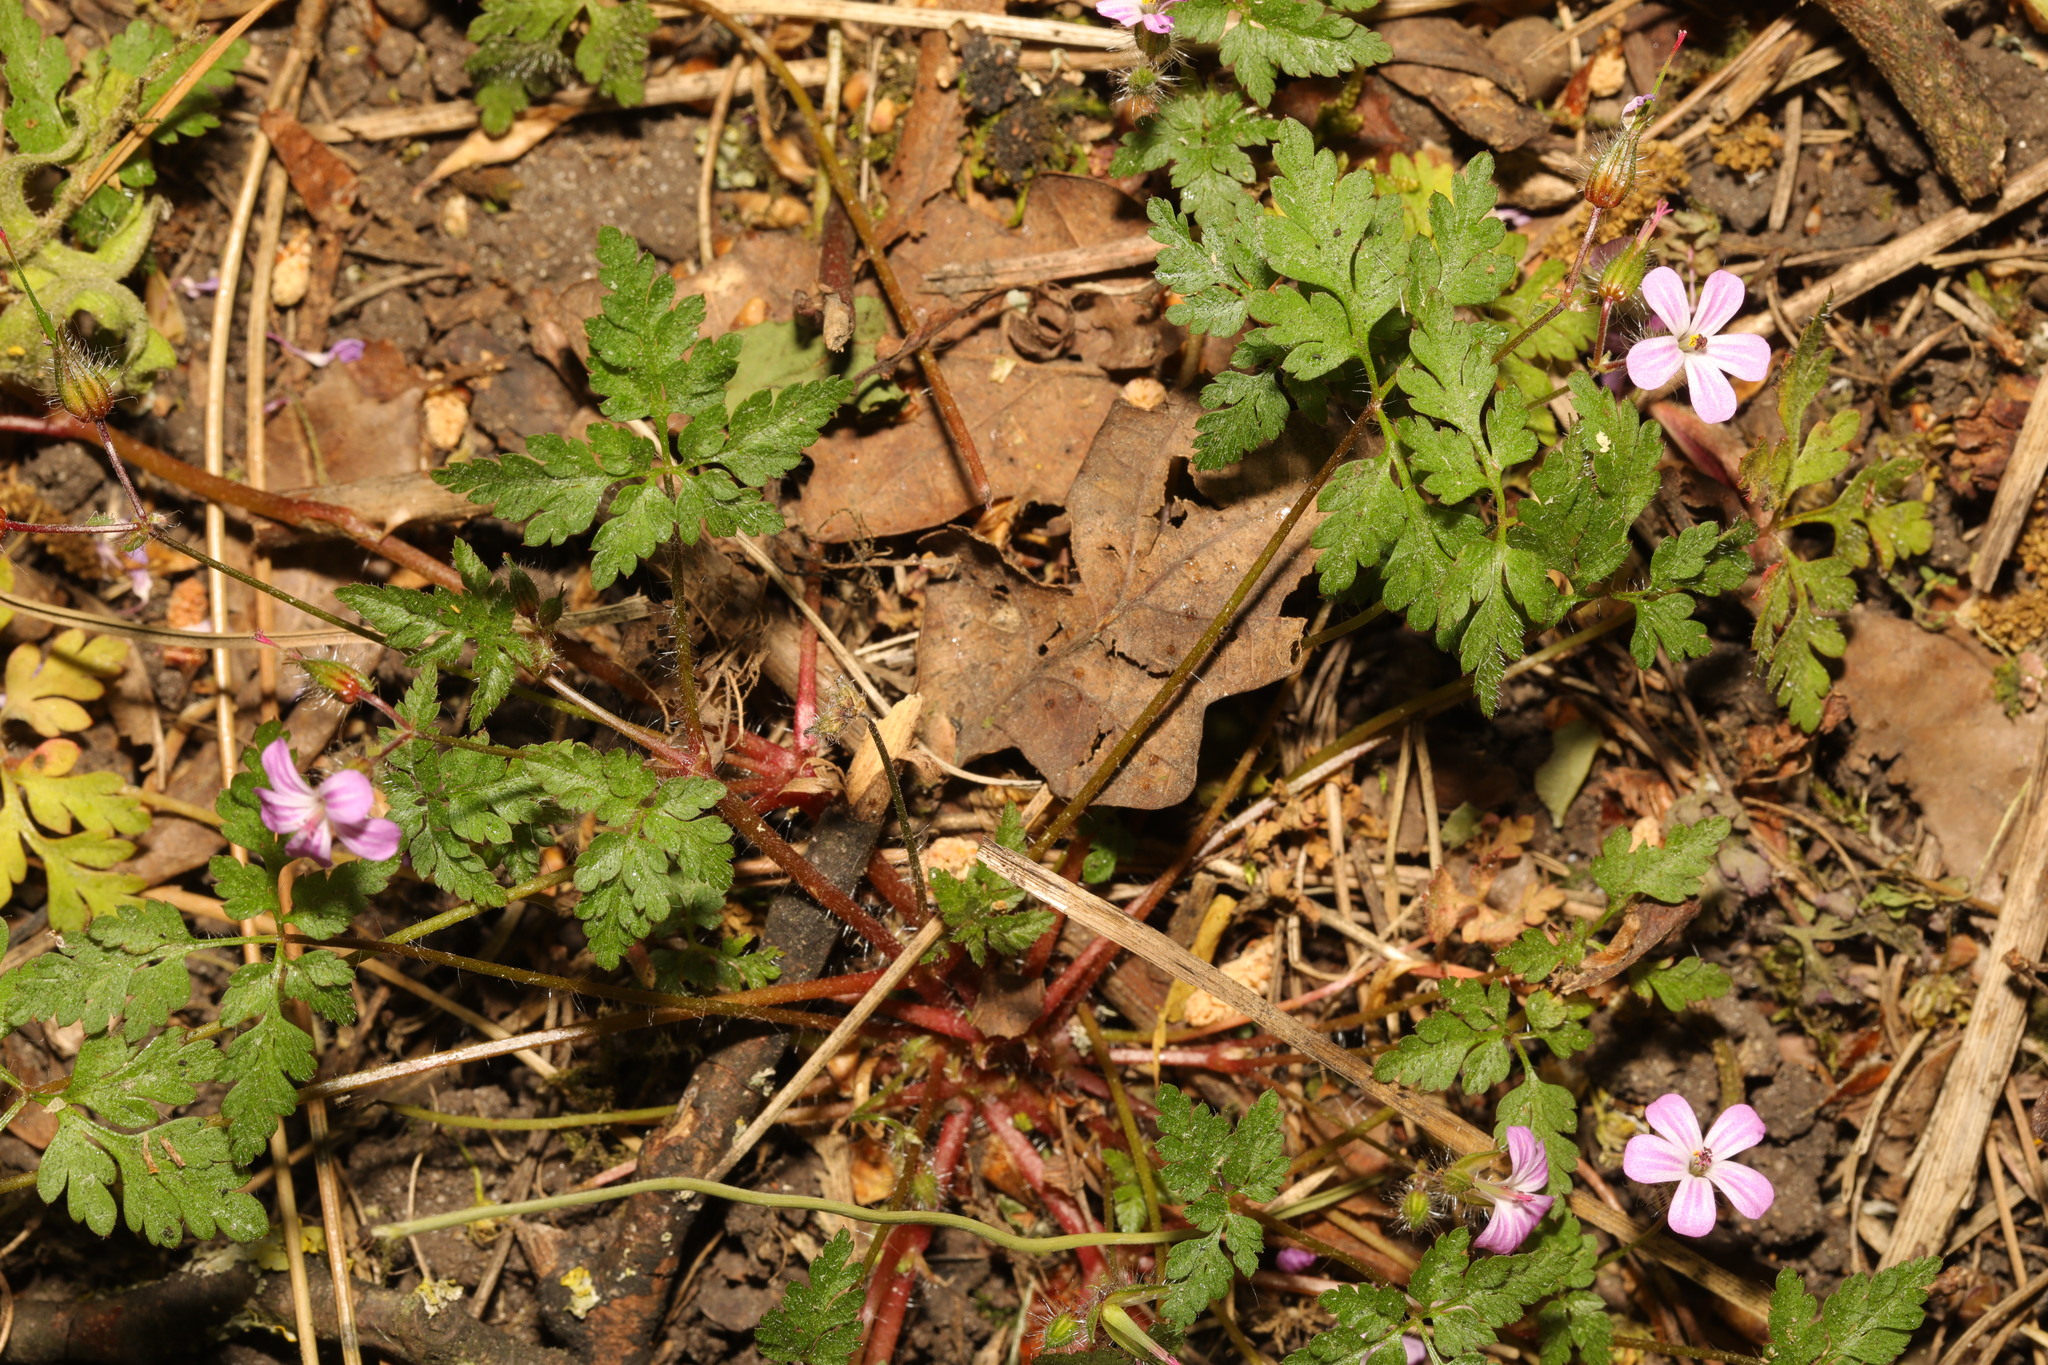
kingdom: Plantae
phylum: Tracheophyta
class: Magnoliopsida
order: Geraniales
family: Geraniaceae
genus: Geranium
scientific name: Geranium robertianum
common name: Herb-robert
